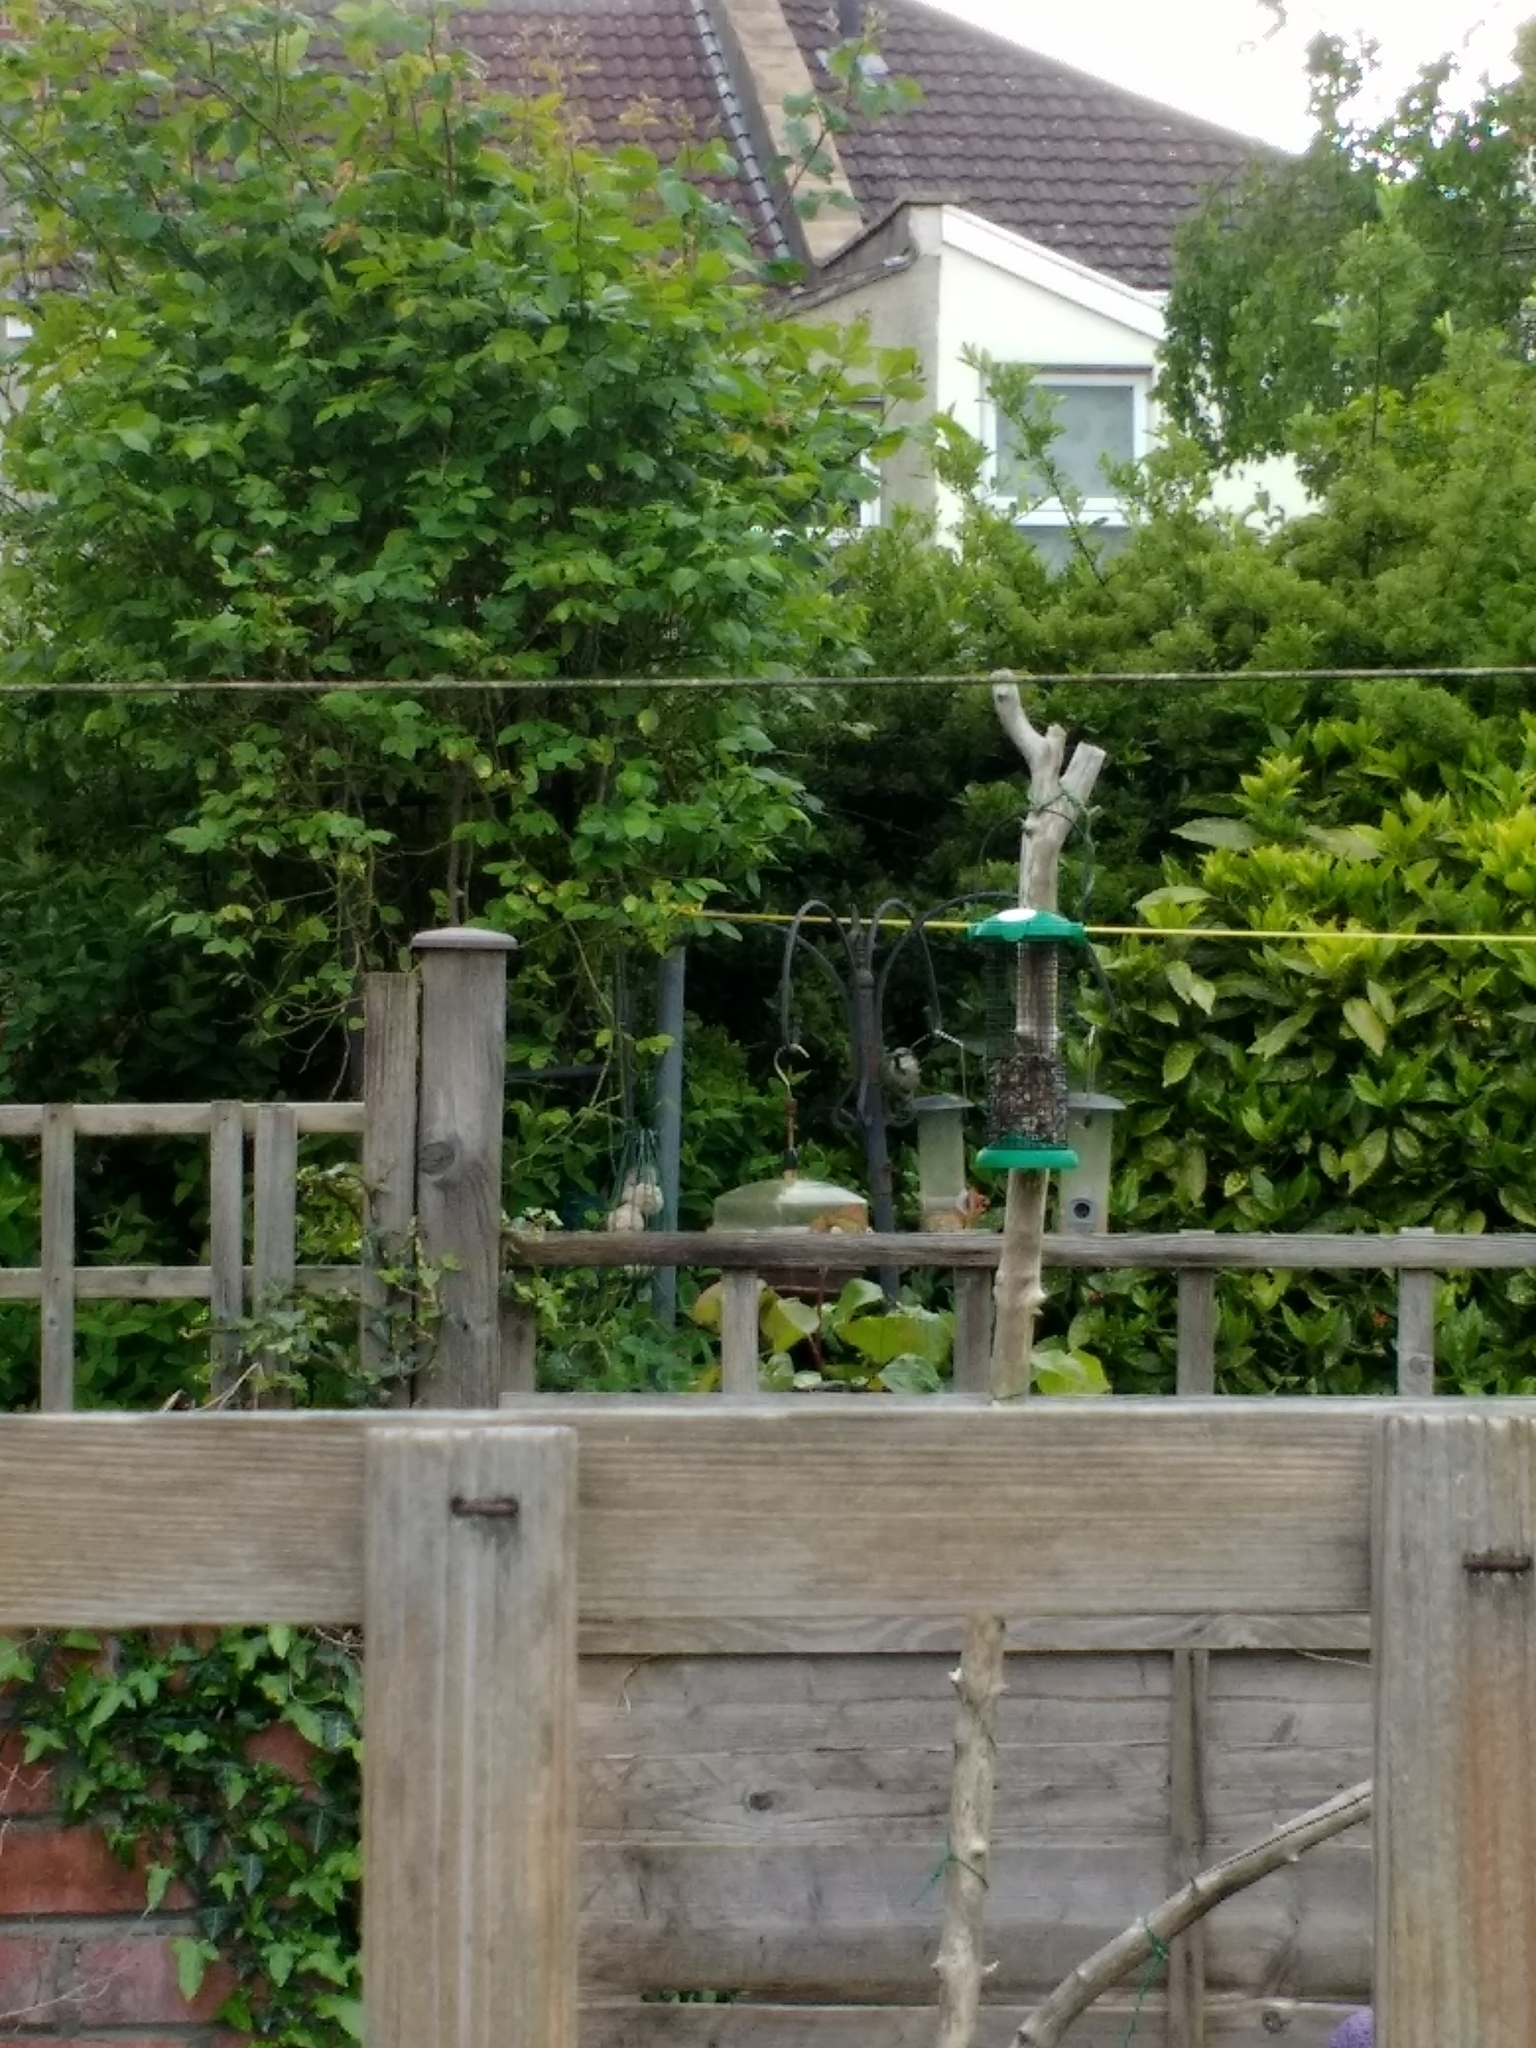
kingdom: Animalia
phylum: Chordata
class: Aves
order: Passeriformes
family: Passeridae
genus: Passer
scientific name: Passer domesticus
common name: House sparrow
